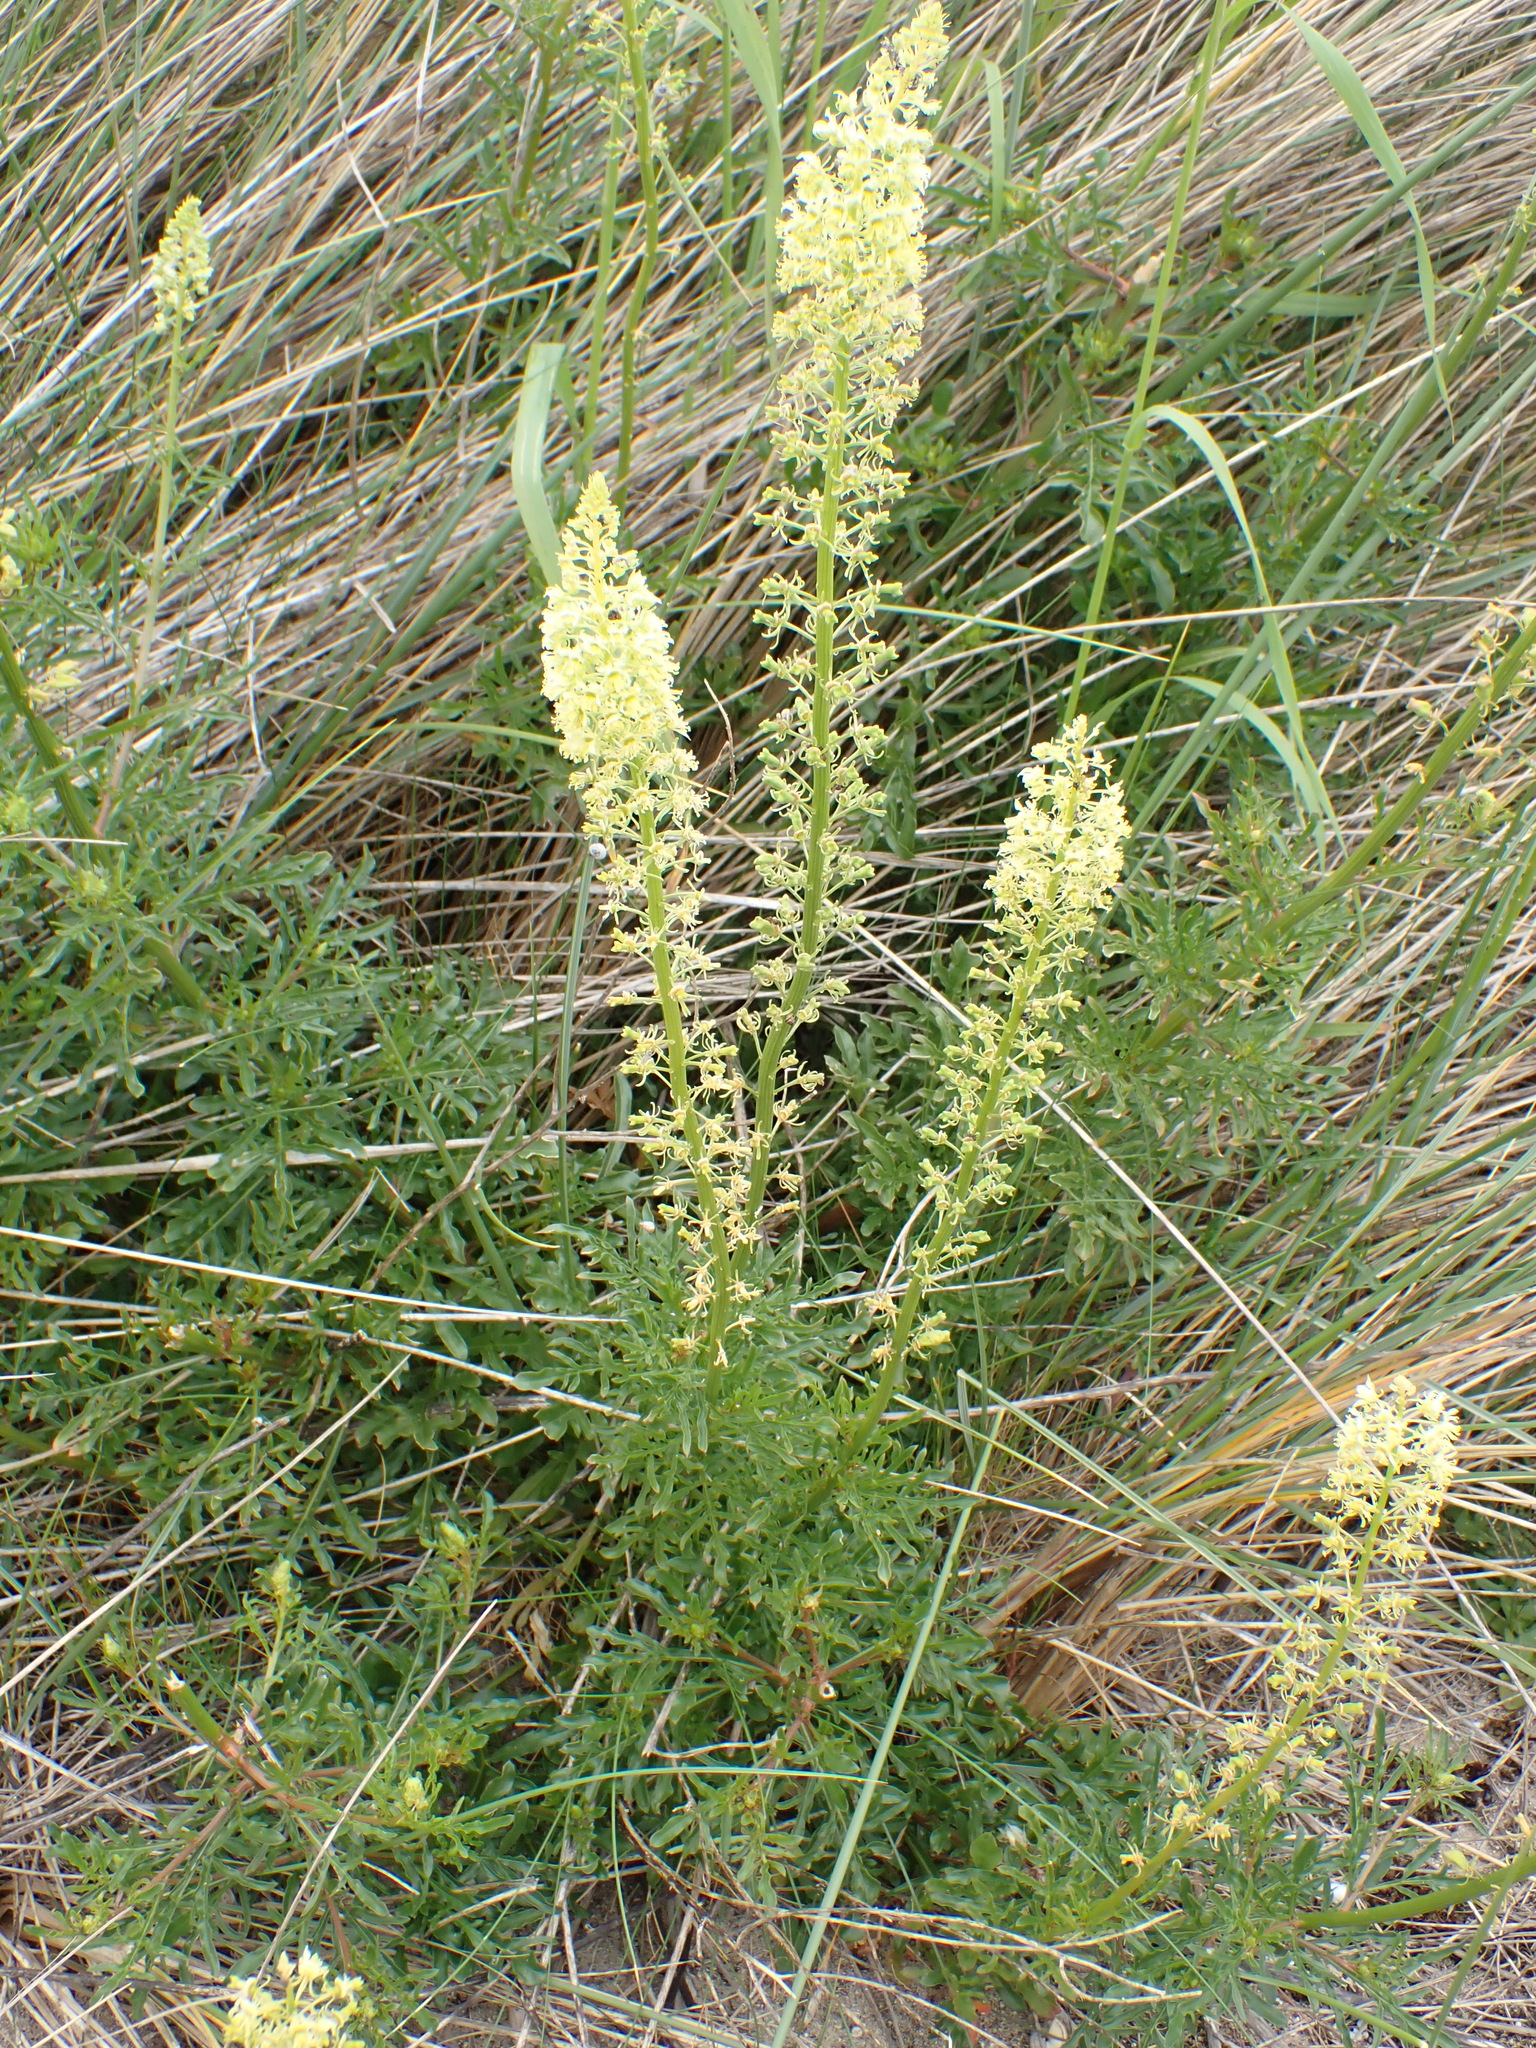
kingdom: Plantae
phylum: Tracheophyta
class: Magnoliopsida
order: Brassicales
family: Resedaceae
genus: Reseda
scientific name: Reseda lutea
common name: Wild mignonette
